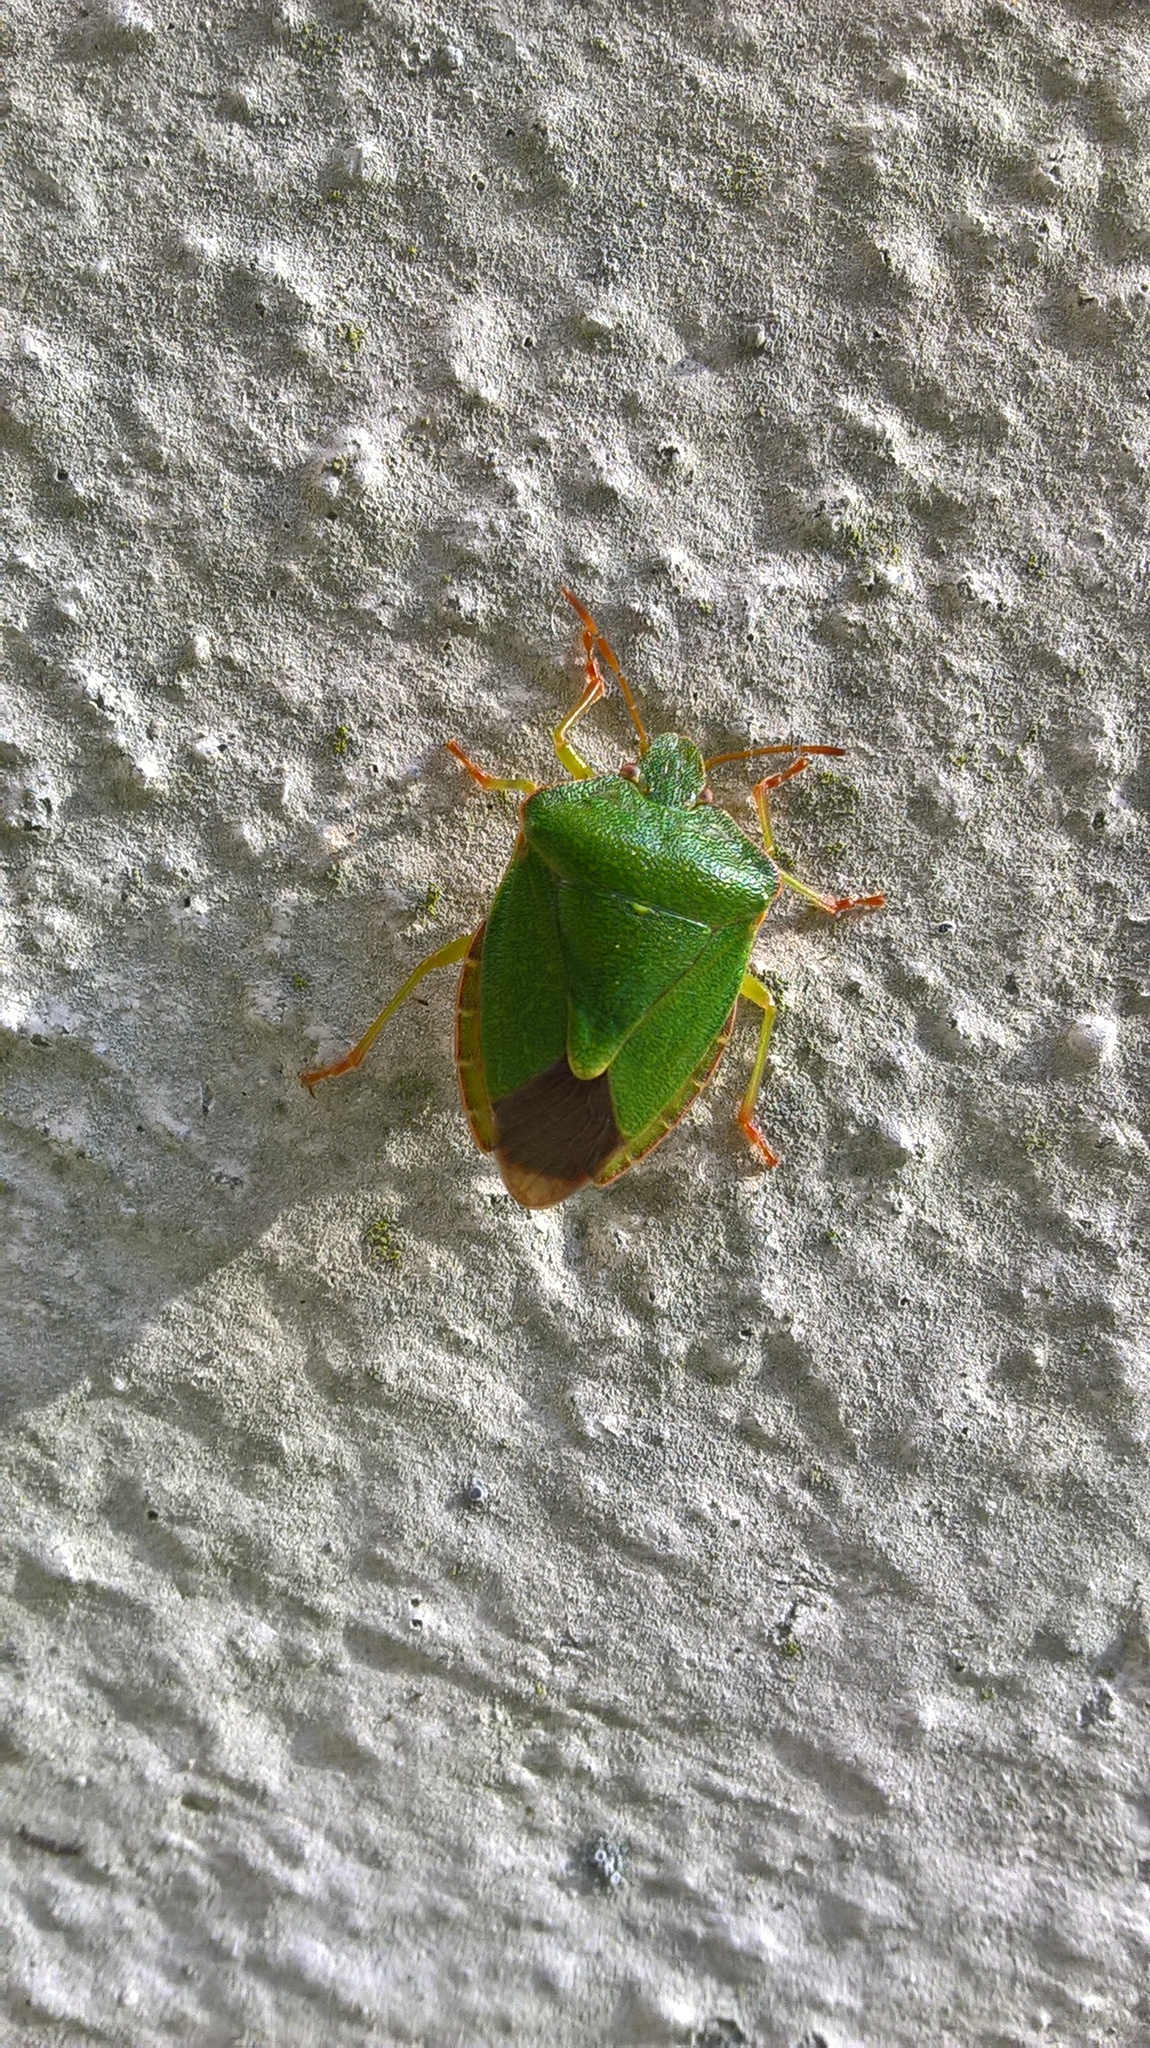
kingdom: Animalia
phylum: Arthropoda
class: Insecta
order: Hemiptera
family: Pentatomidae
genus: Palomena
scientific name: Palomena prasina
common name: Green shieldbug
